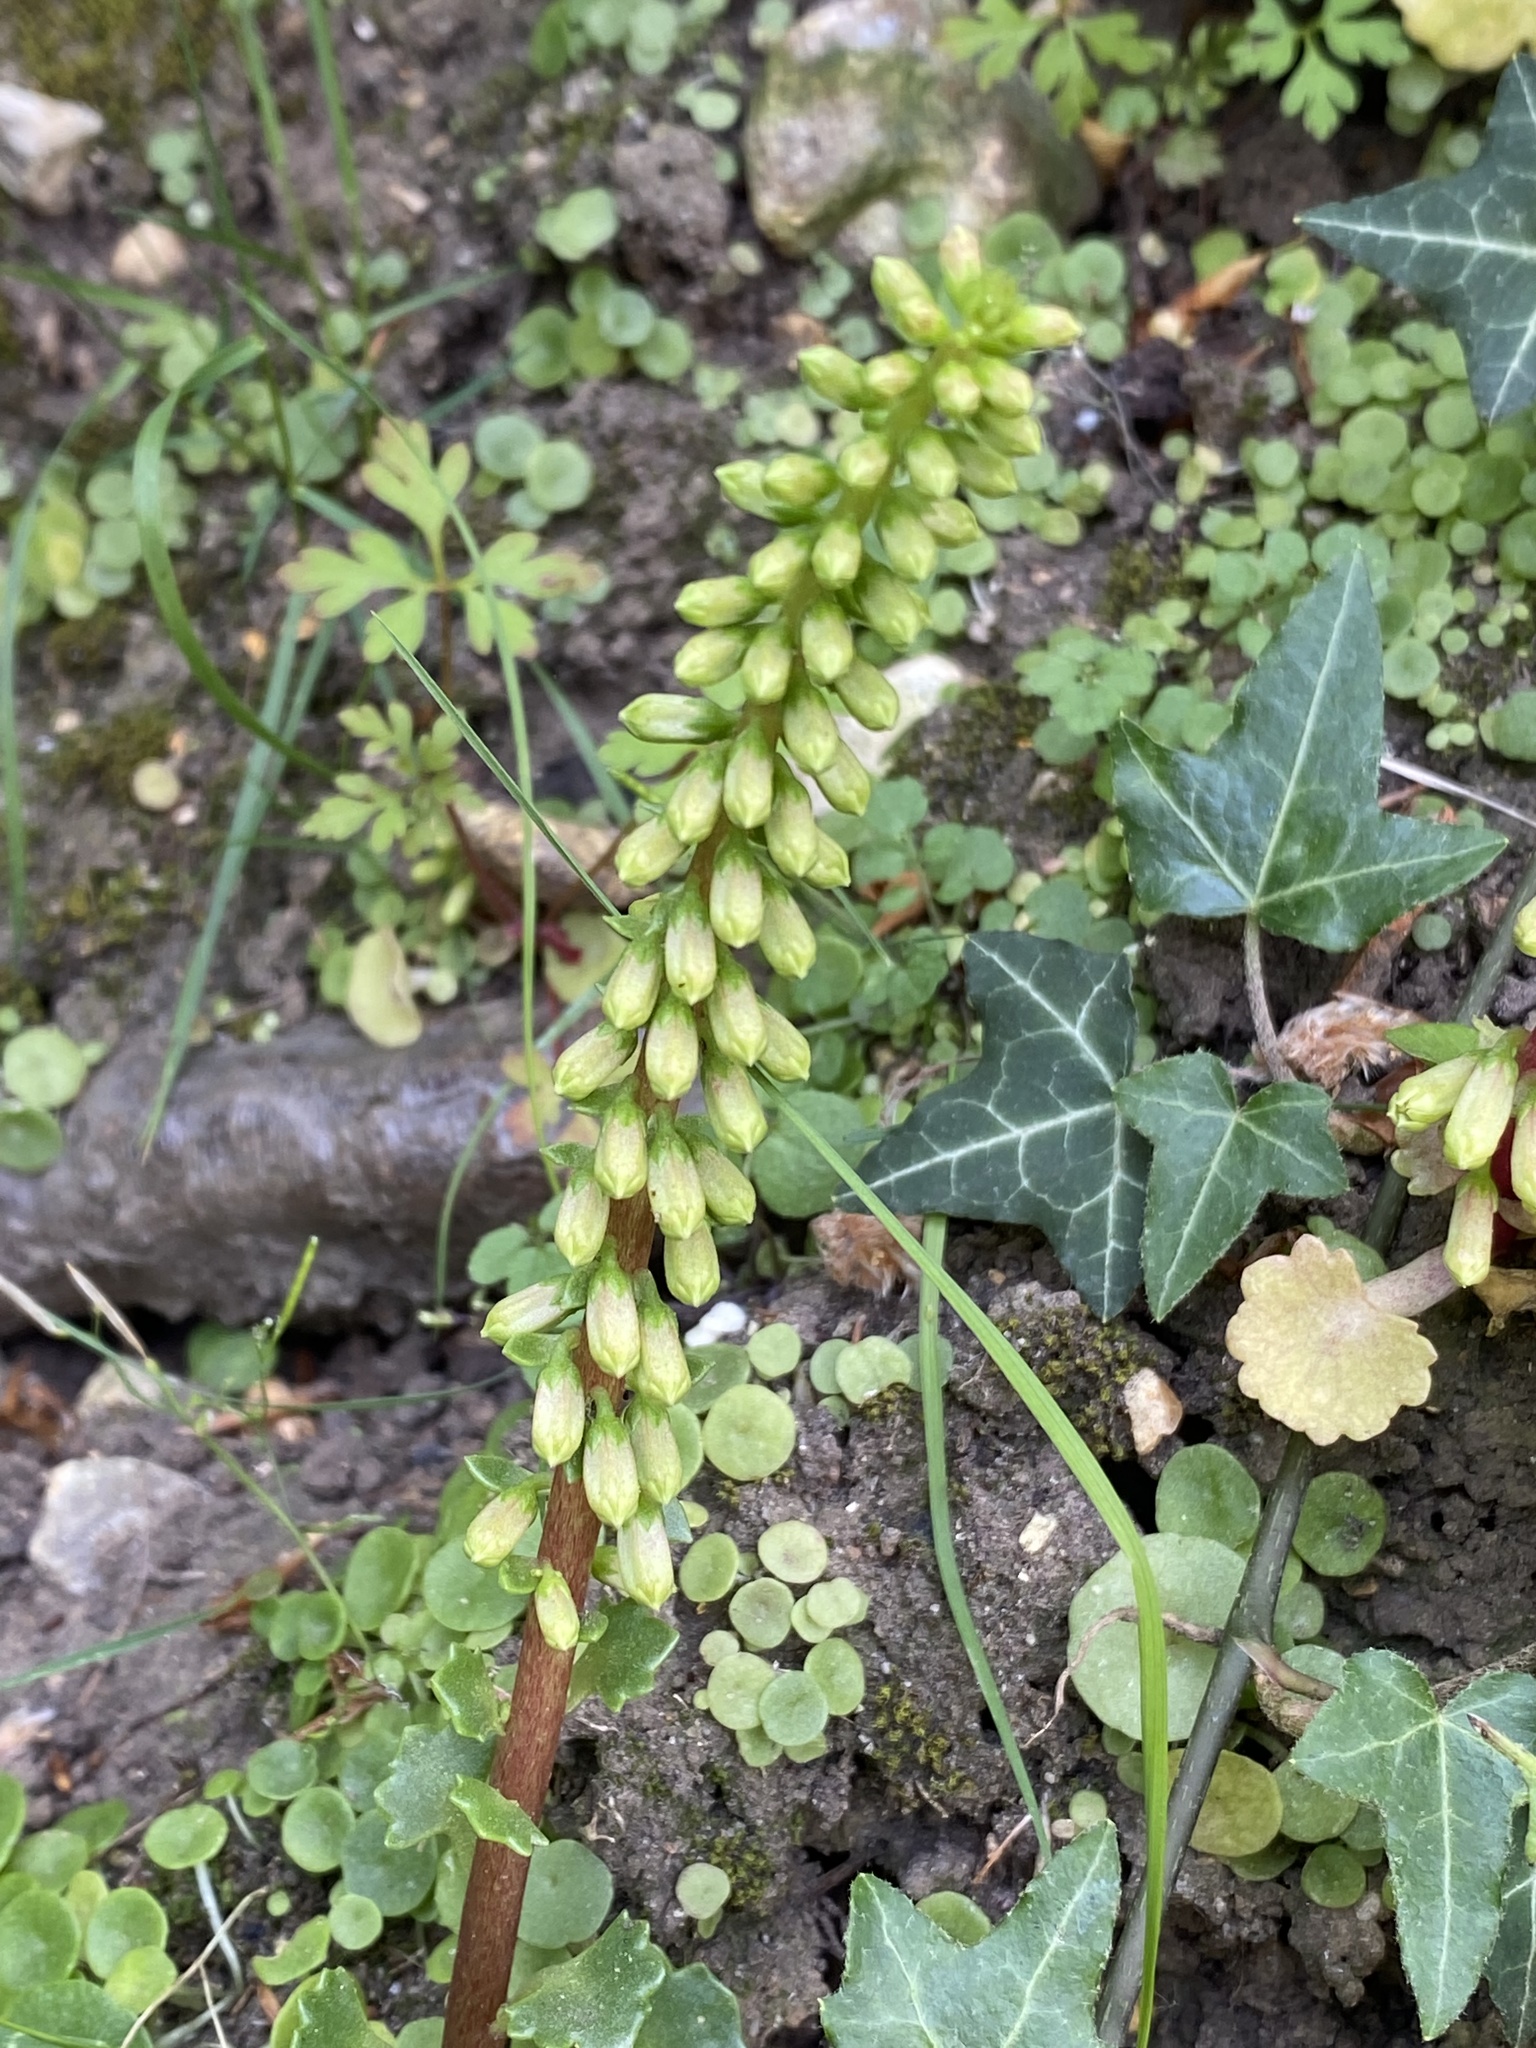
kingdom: Plantae
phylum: Tracheophyta
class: Magnoliopsida
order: Saxifragales
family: Crassulaceae
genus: Umbilicus
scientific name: Umbilicus rupestris
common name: Navelwort
